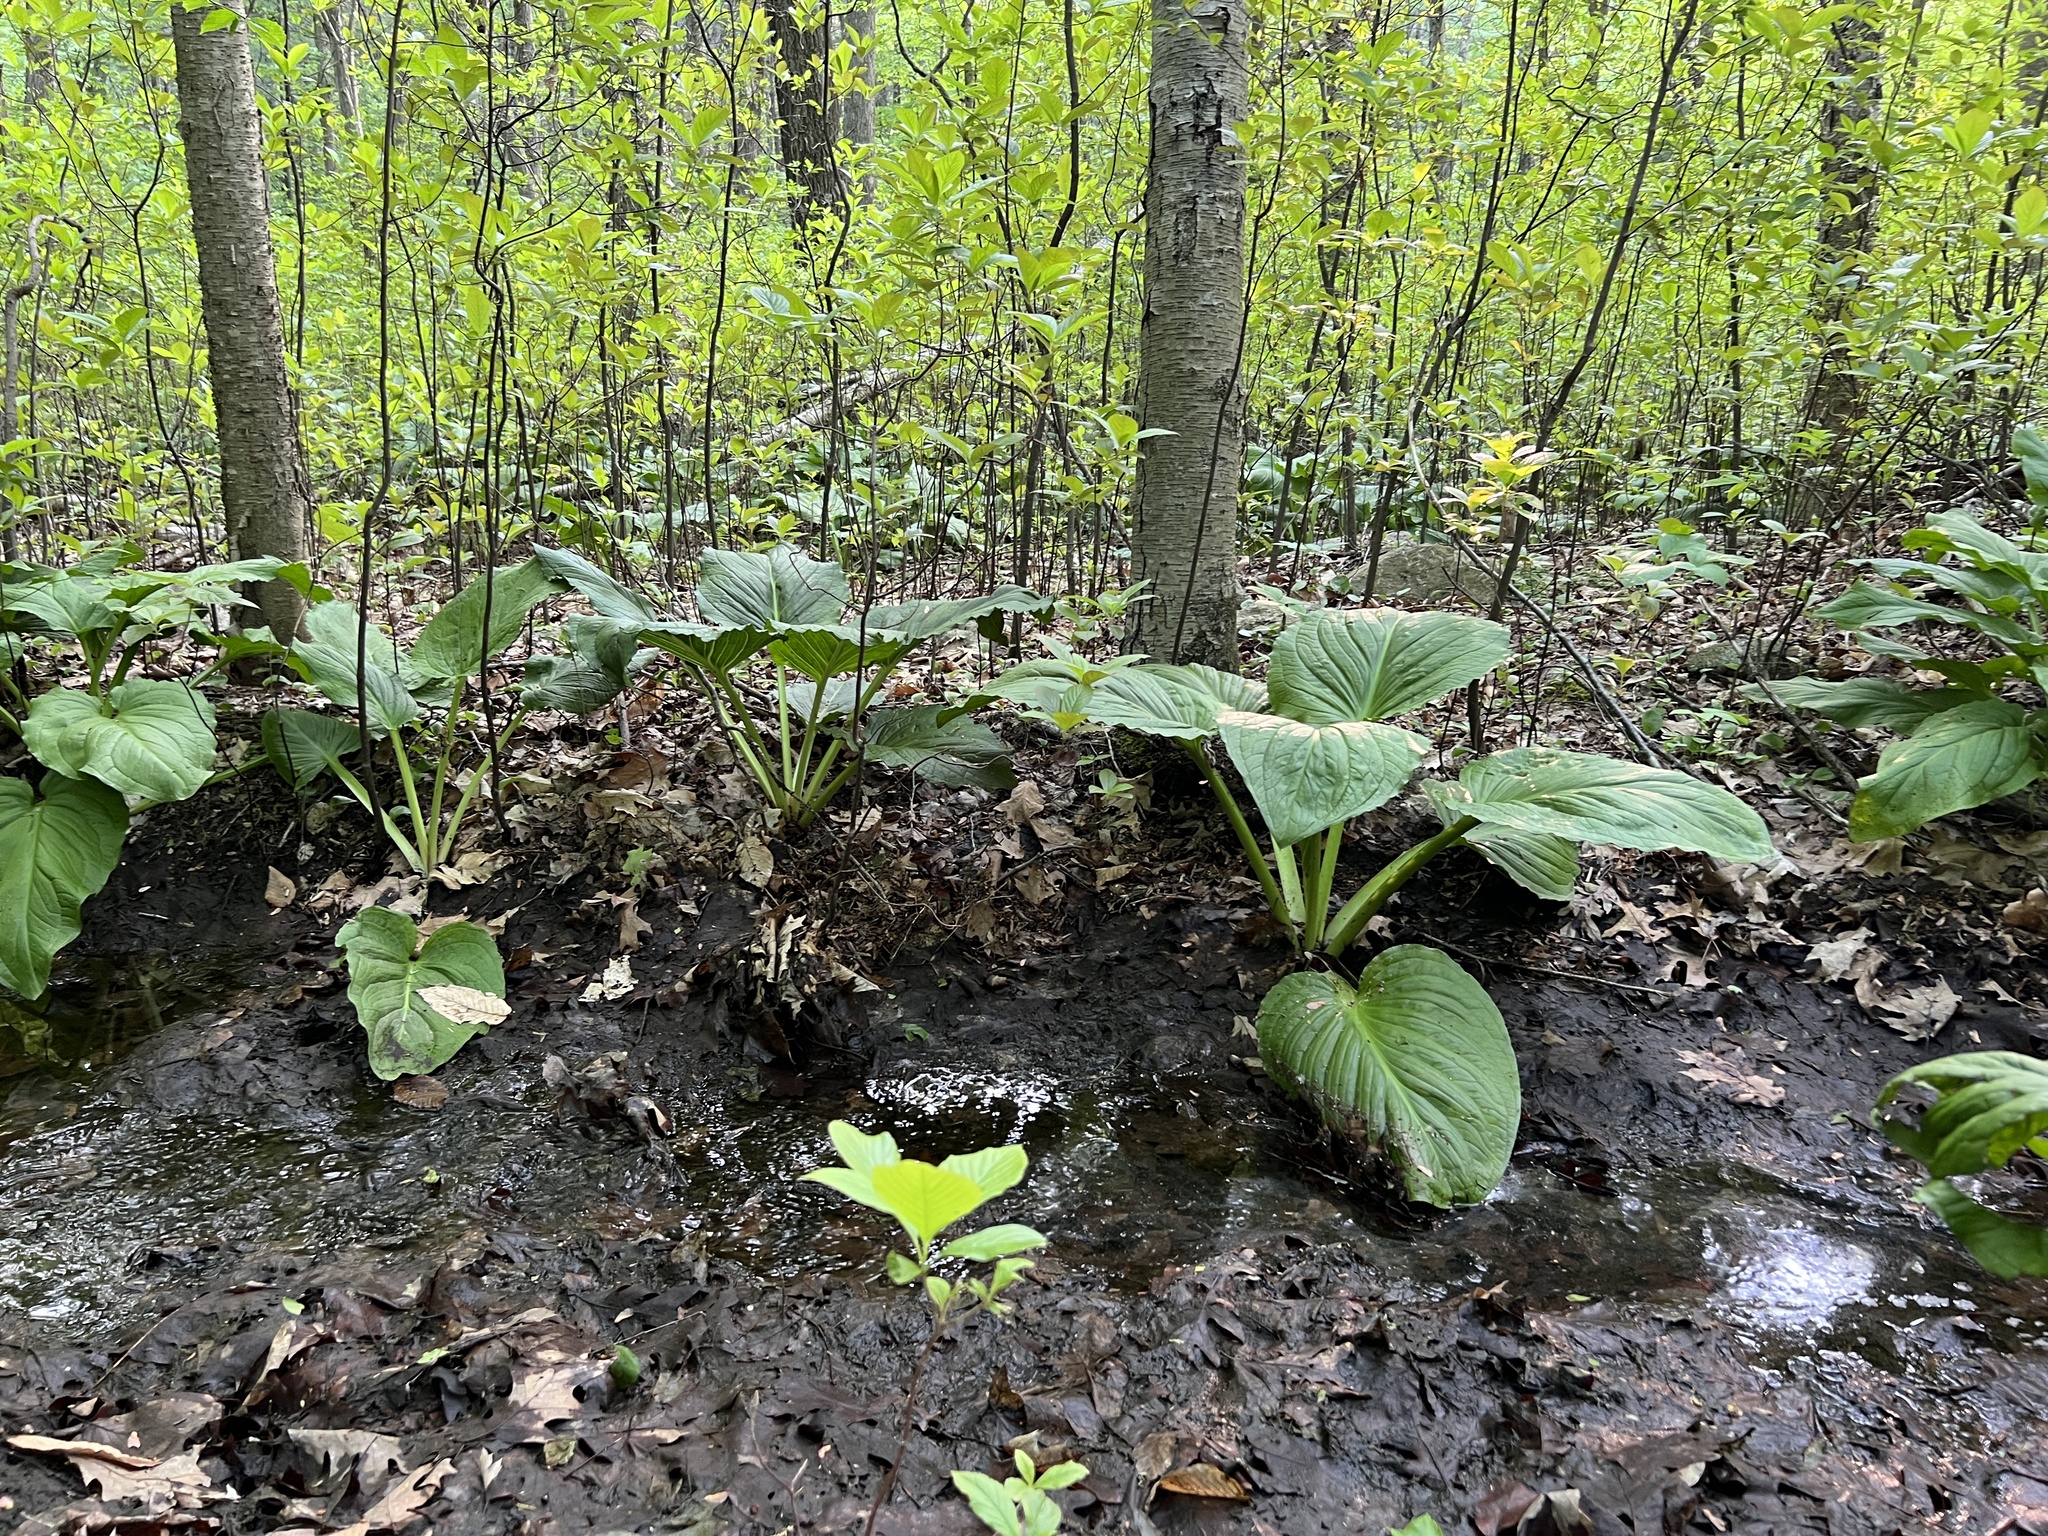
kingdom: Plantae
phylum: Tracheophyta
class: Liliopsida
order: Alismatales
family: Araceae
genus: Symplocarpus
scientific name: Symplocarpus foetidus
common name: Eastern skunk cabbage
